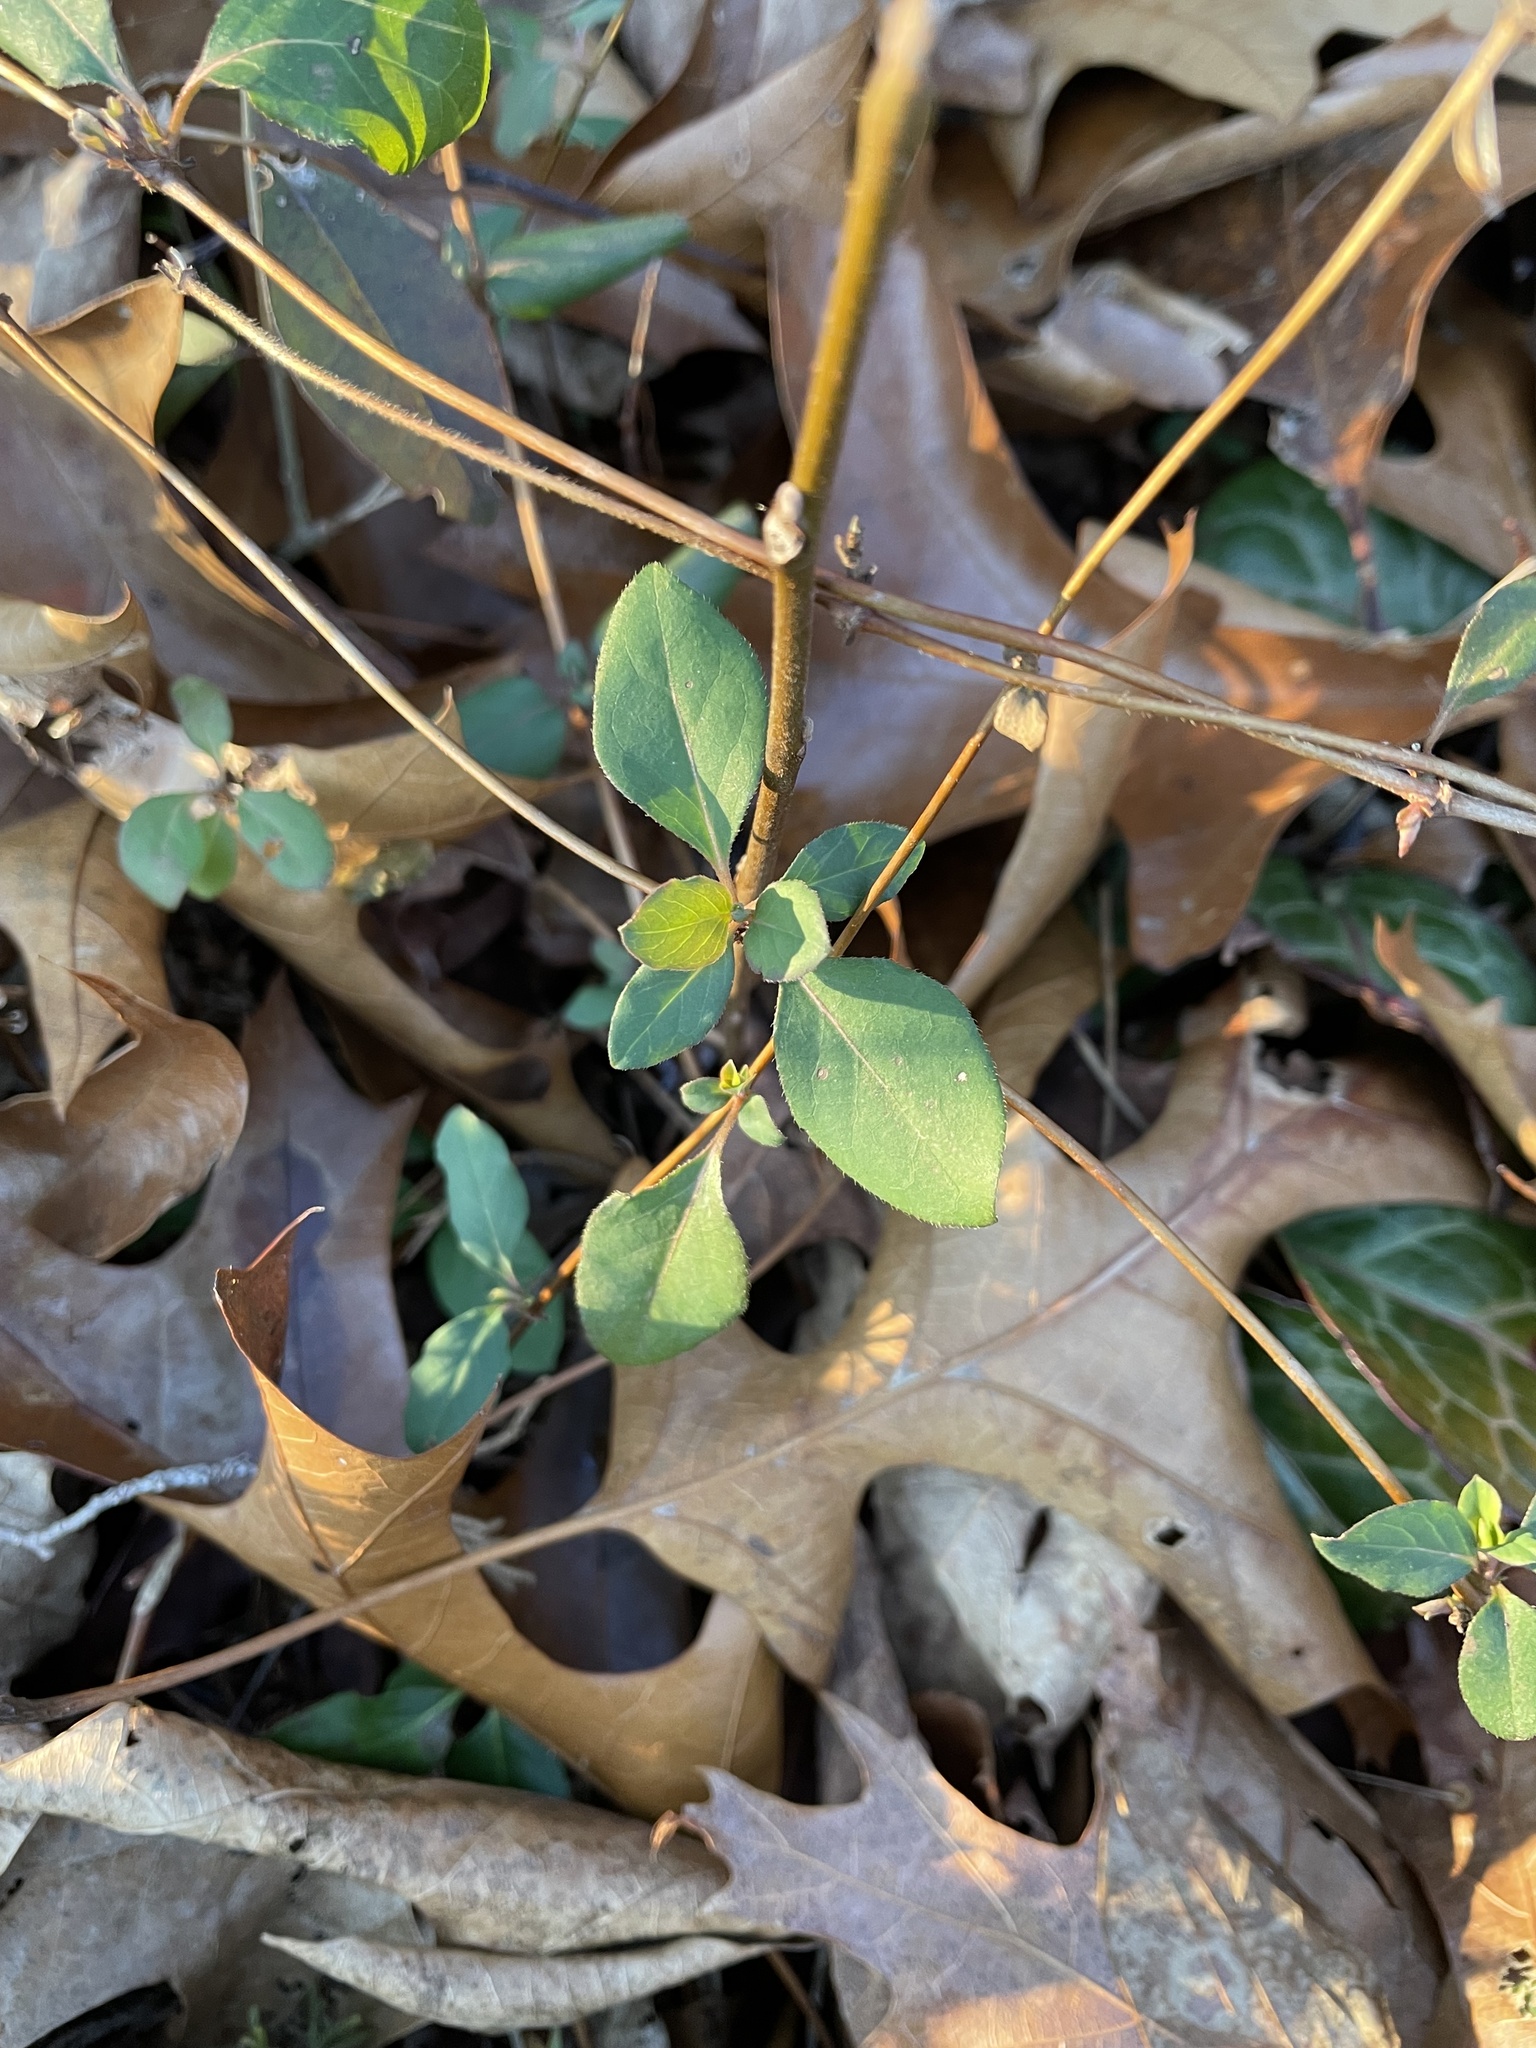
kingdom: Plantae
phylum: Tracheophyta
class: Magnoliopsida
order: Dipsacales
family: Caprifoliaceae
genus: Lonicera
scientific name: Lonicera japonica
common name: Japanese honeysuckle
